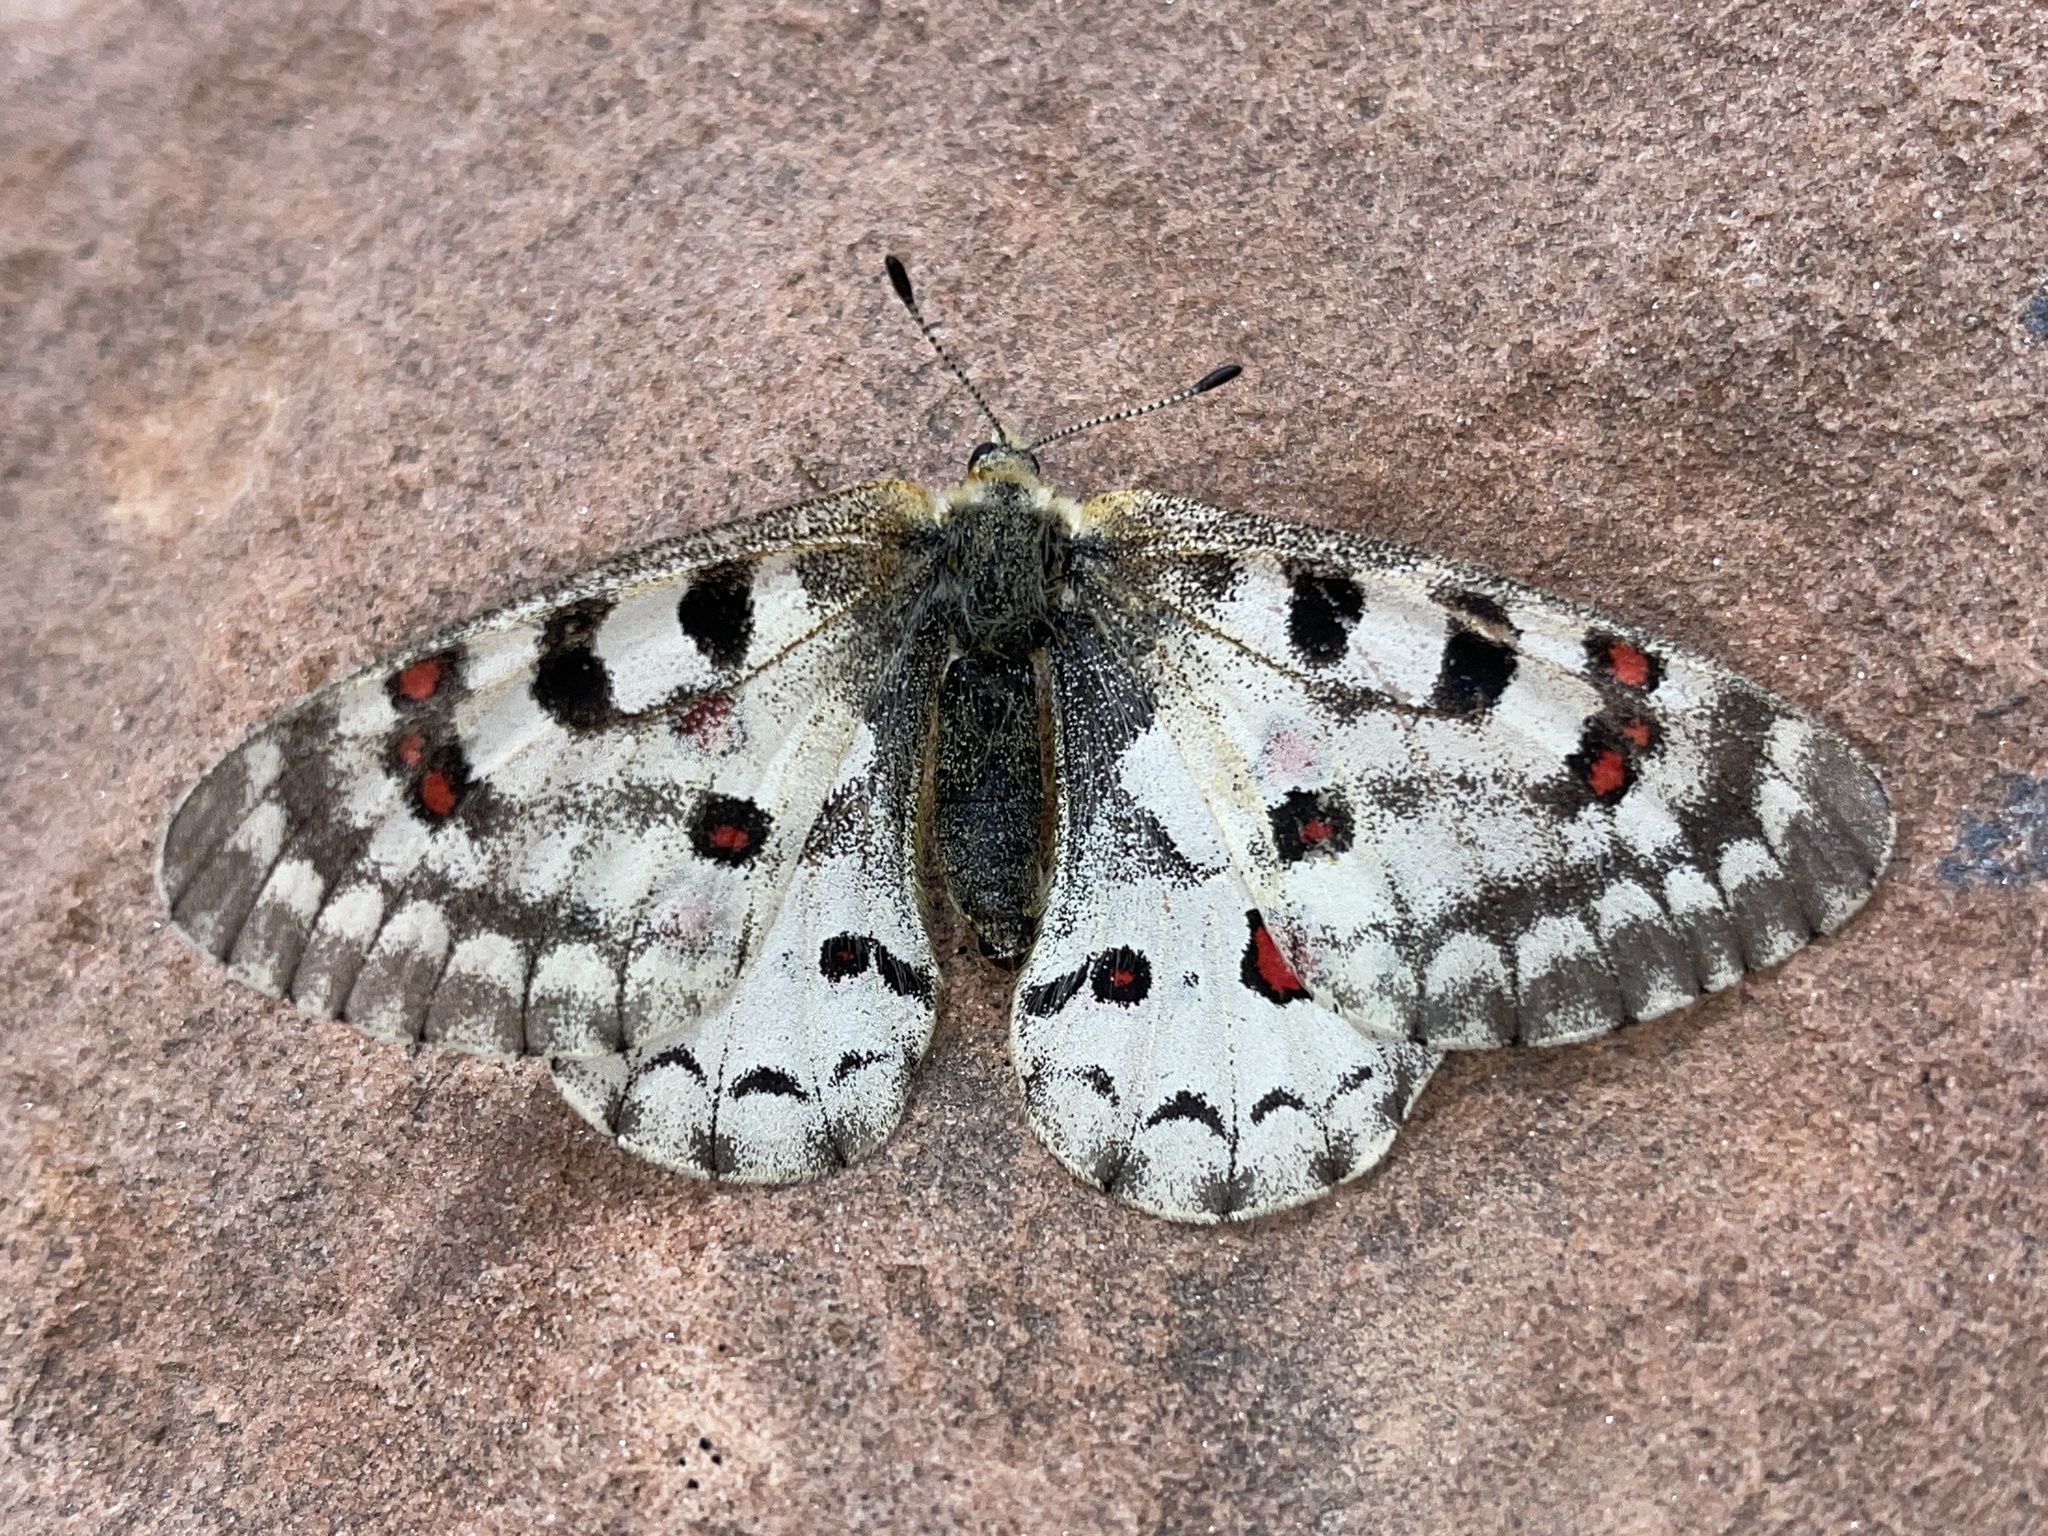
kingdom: Animalia
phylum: Arthropoda
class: Insecta
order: Lepidoptera
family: Papilionidae
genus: Parnassius
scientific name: Parnassius smintheus
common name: Mountain parnassian
